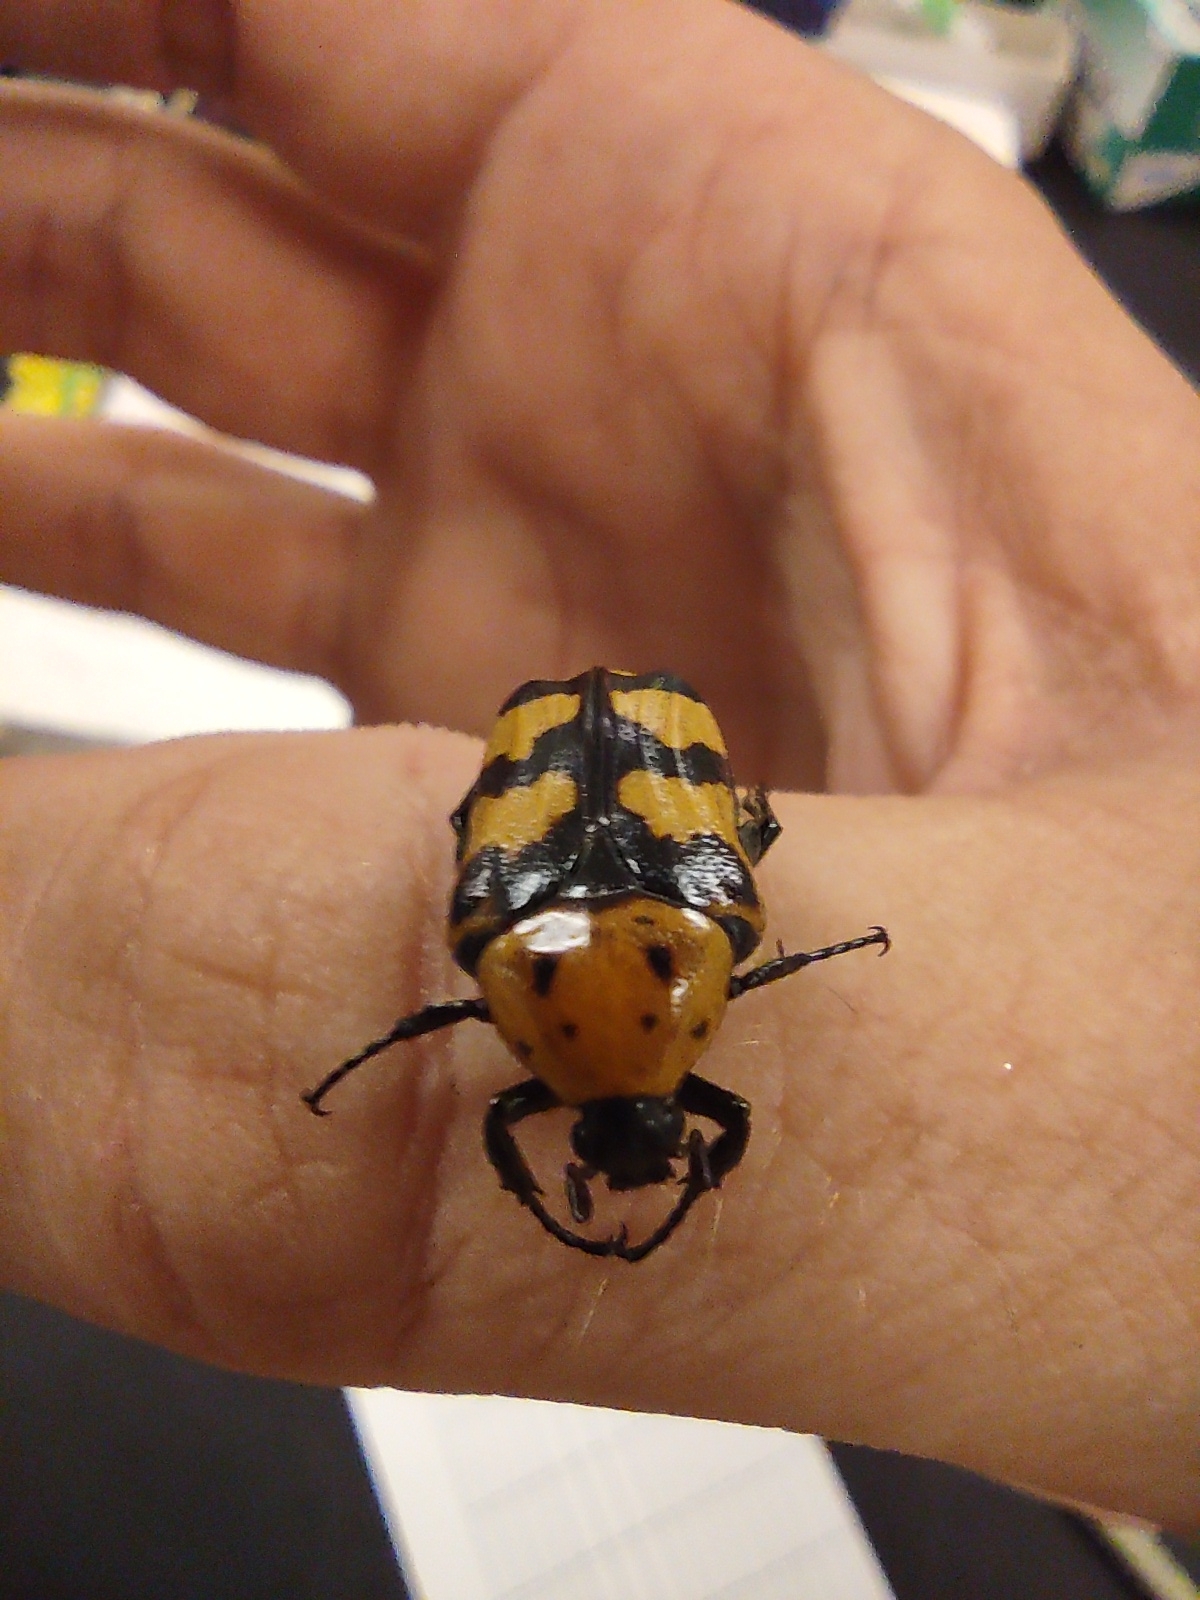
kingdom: Animalia
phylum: Arthropoda
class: Insecta
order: Coleoptera
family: Scarabaeidae
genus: Euphoria
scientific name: Euphoria fascifera
